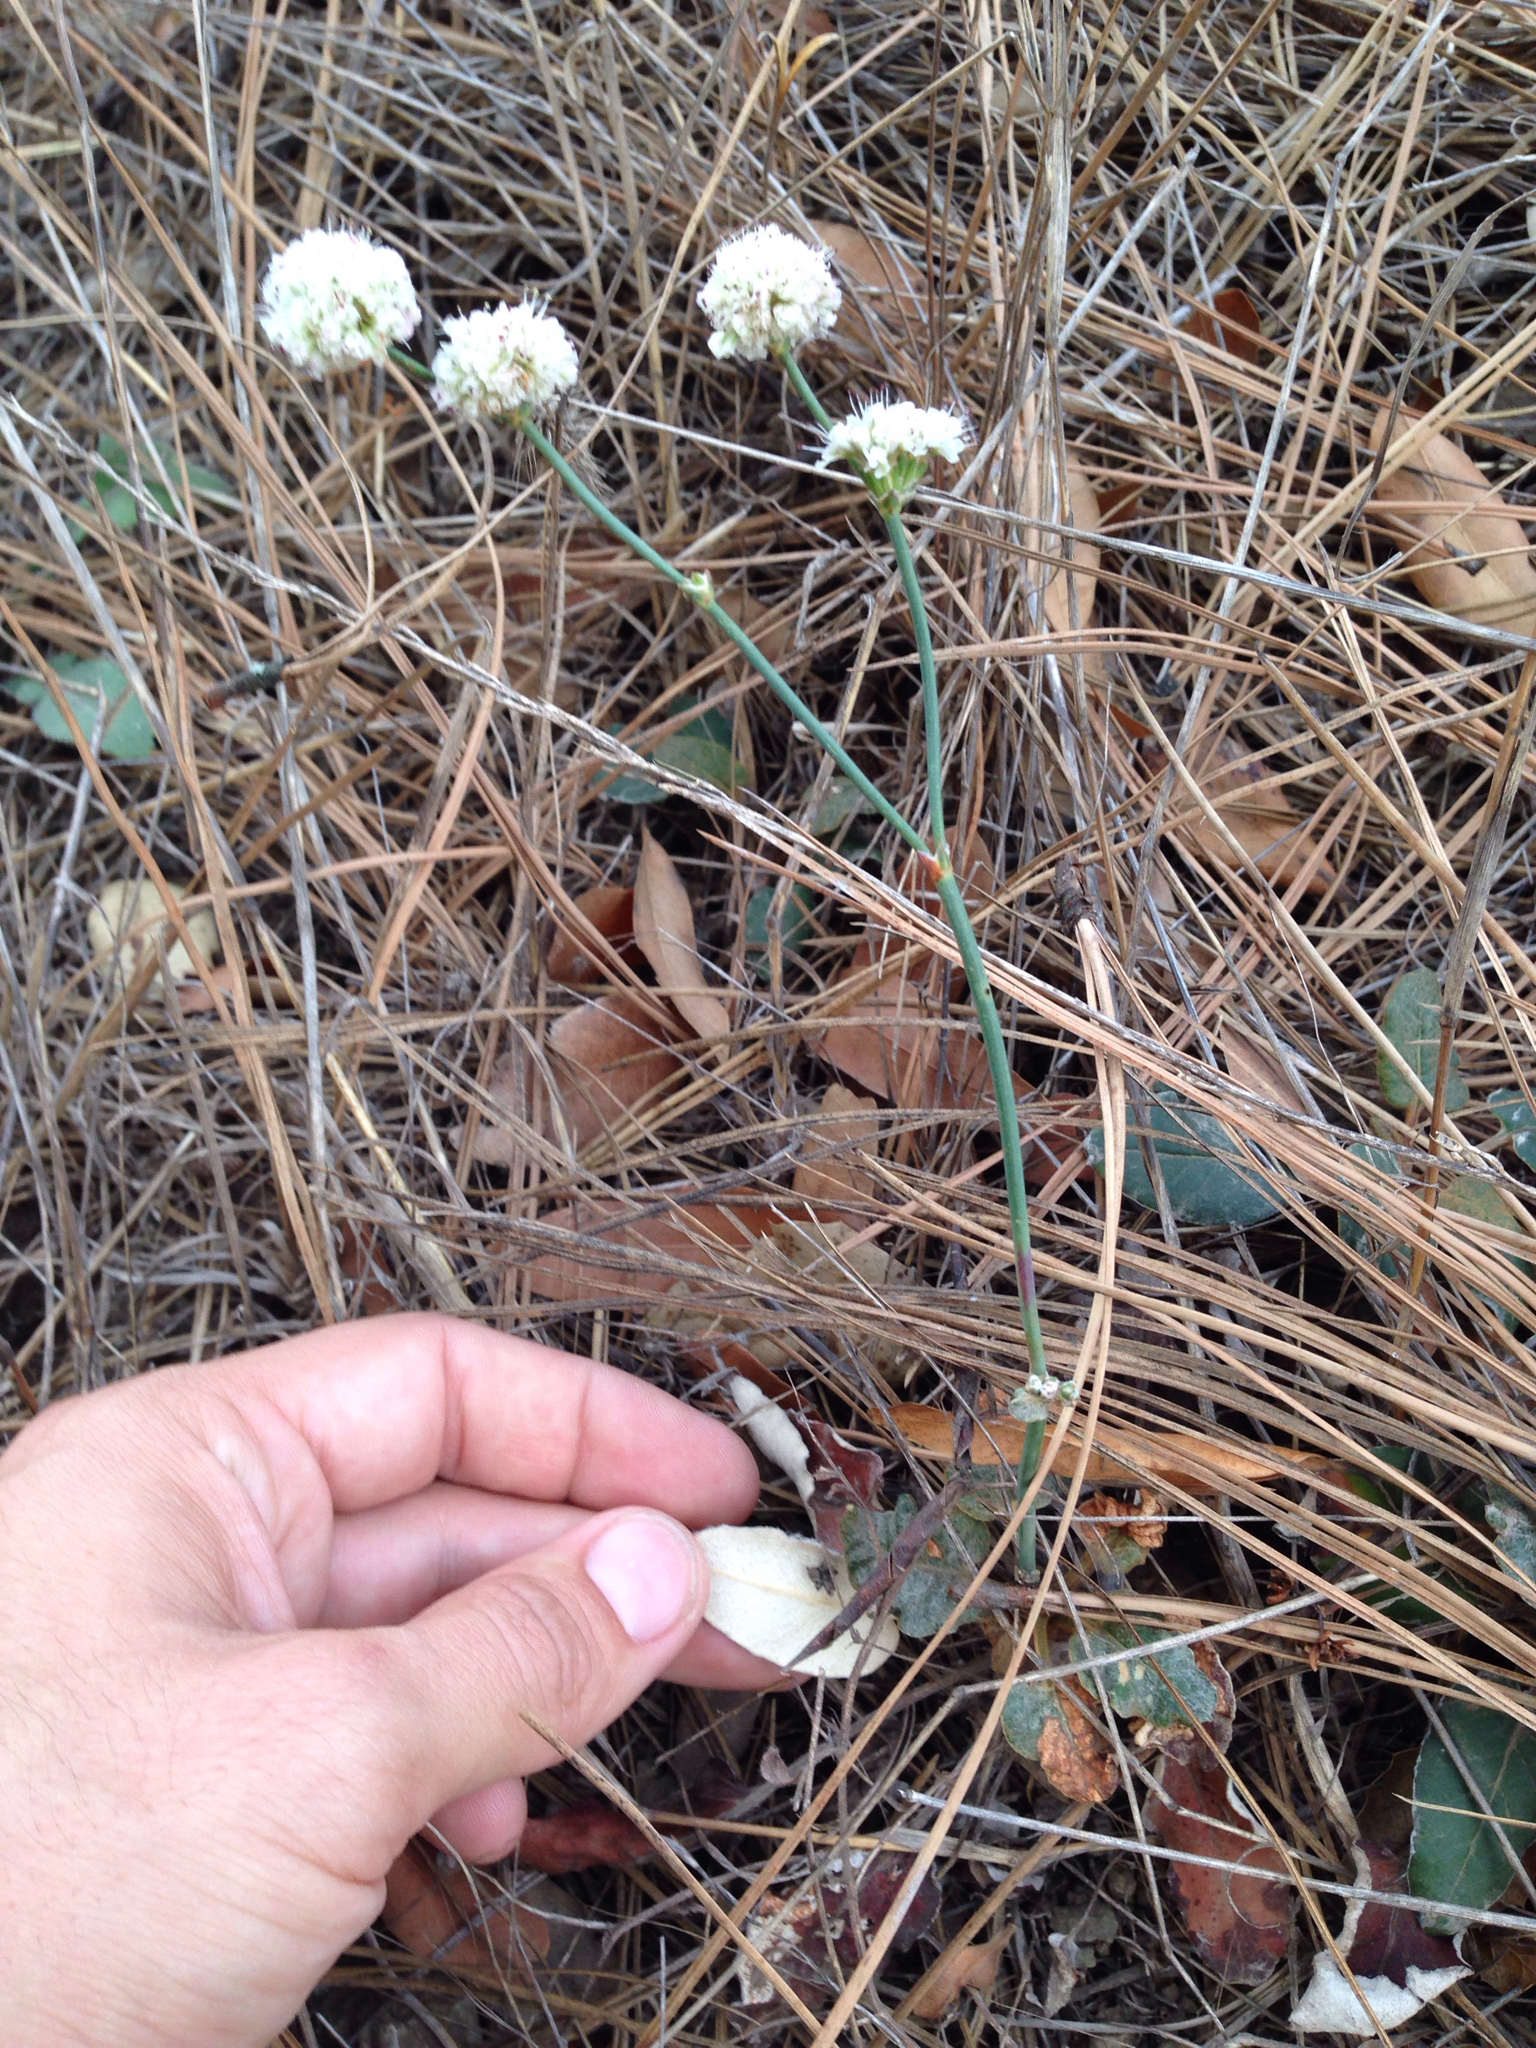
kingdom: Plantae
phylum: Tracheophyta
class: Magnoliopsida
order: Caryophyllales
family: Polygonaceae
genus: Eriogonum
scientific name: Eriogonum nudum
